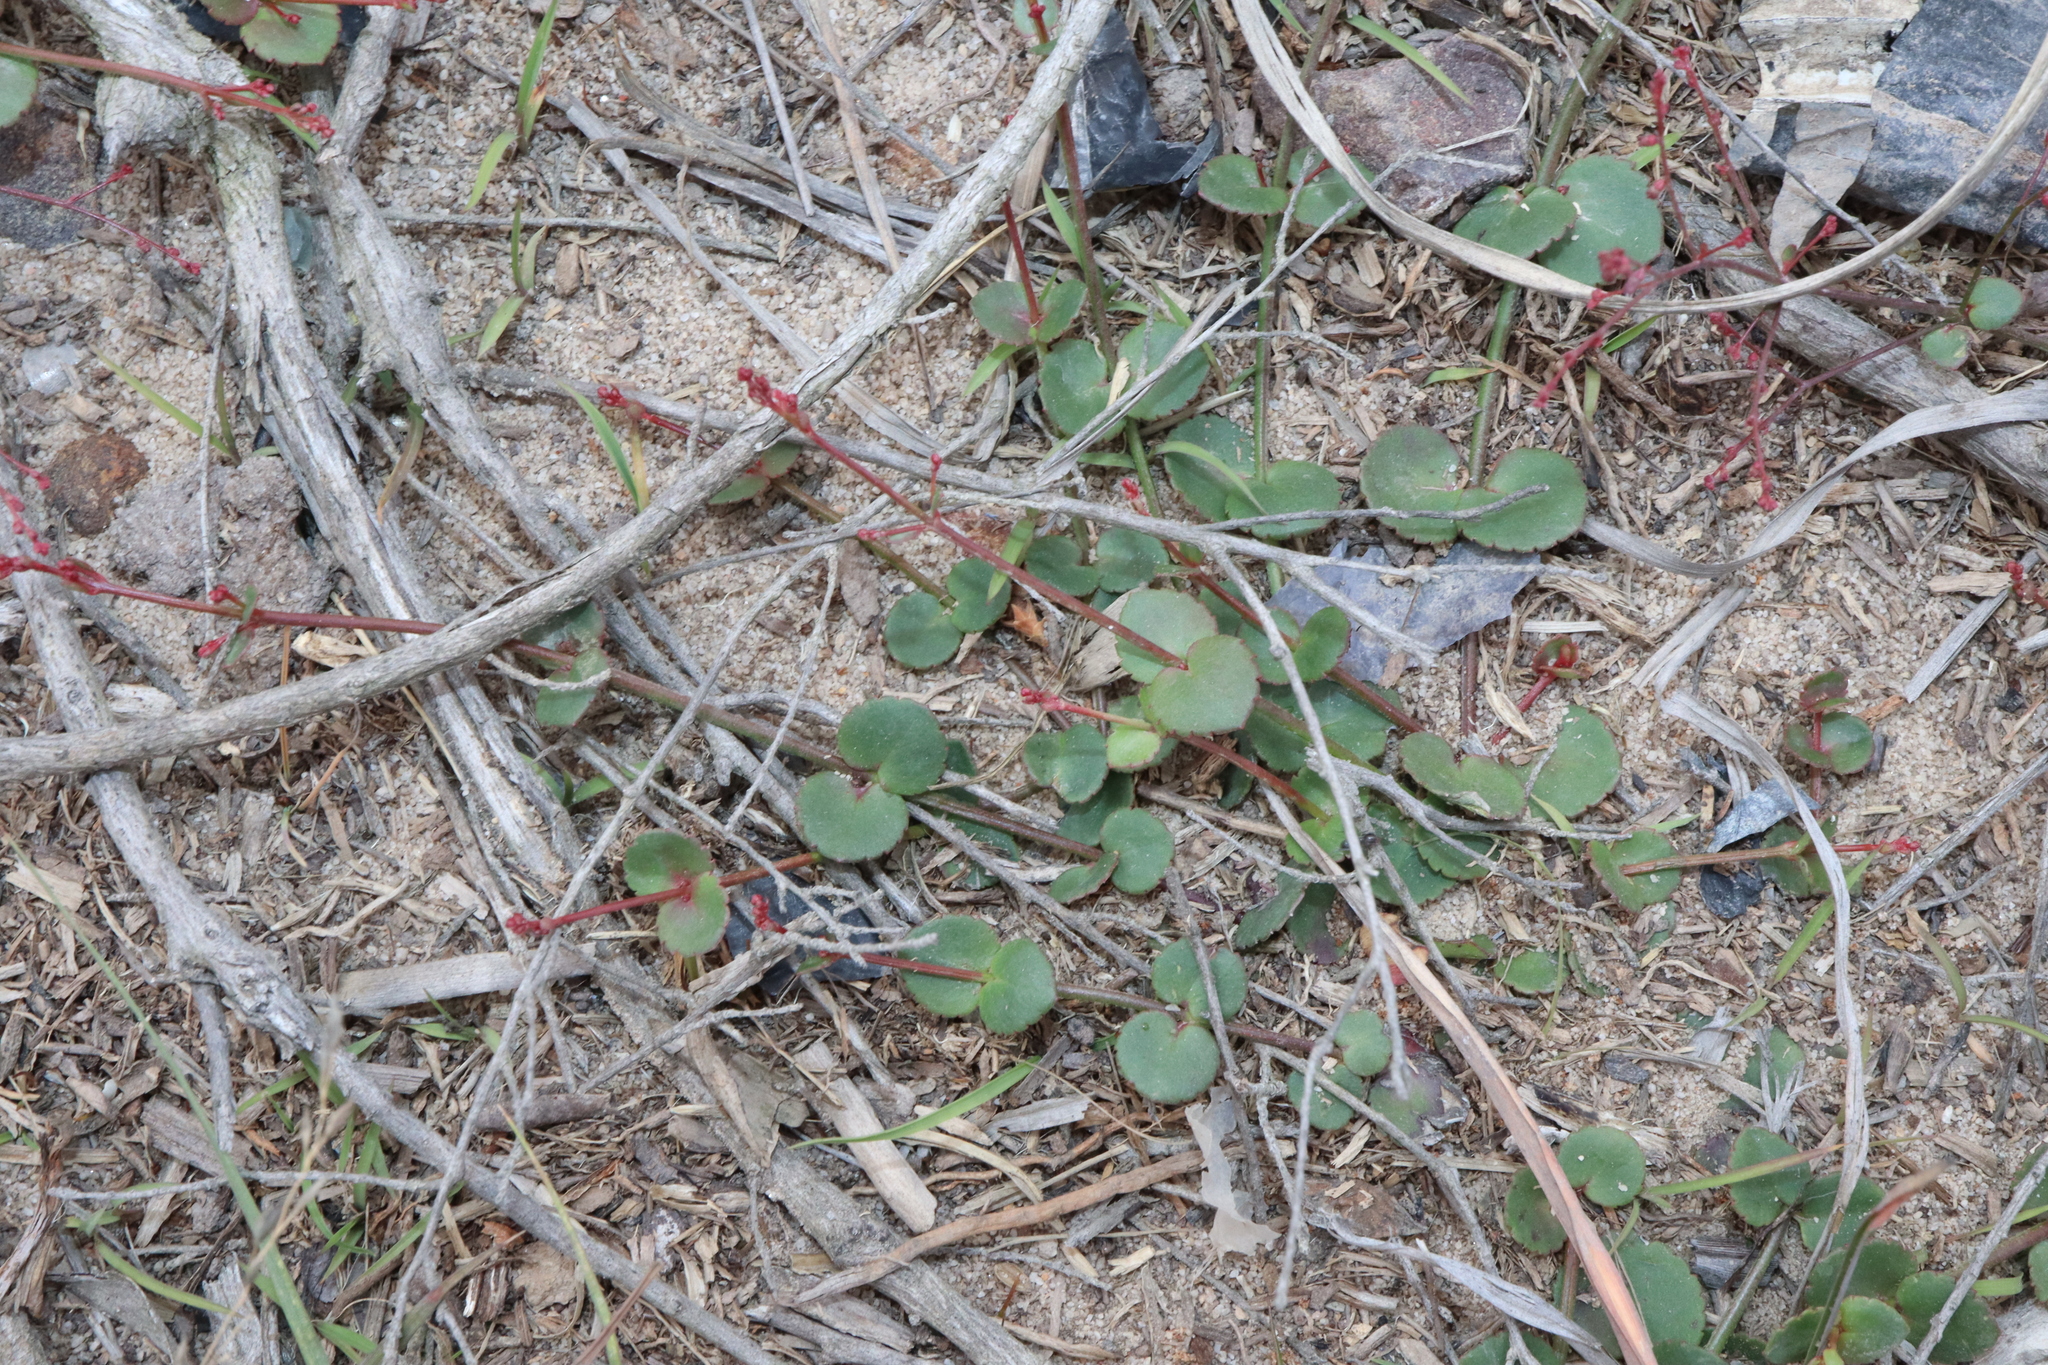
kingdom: Plantae
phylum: Tracheophyta
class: Magnoliopsida
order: Saxifragales
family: Haloragaceae
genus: Gonocarpus
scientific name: Gonocarpus micranthus
